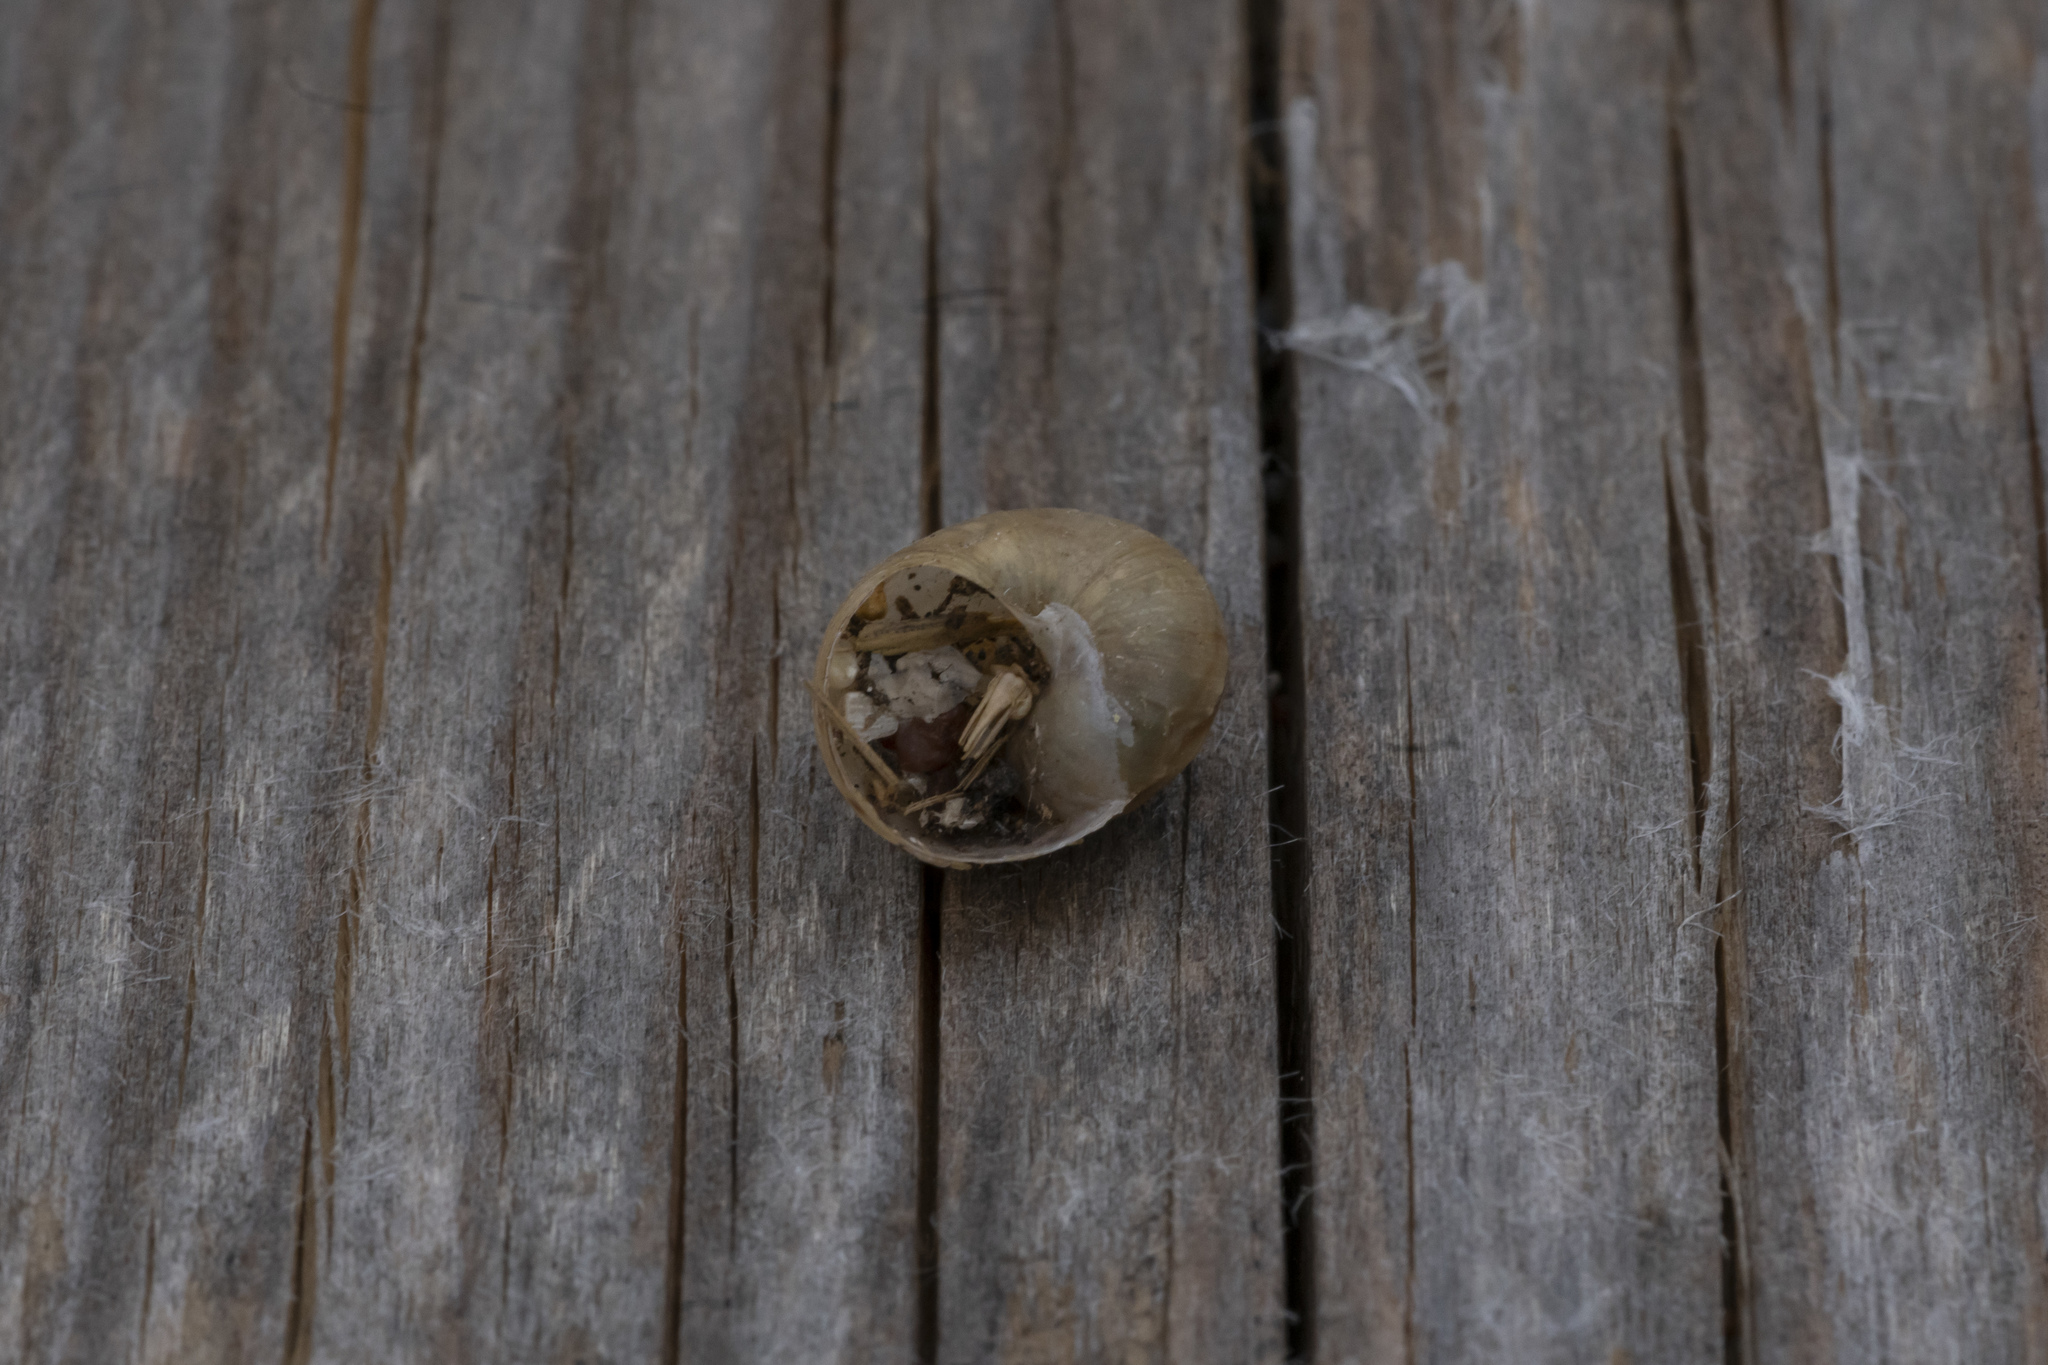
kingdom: Animalia
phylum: Mollusca
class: Gastropoda
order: Stylommatophora
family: Helicidae
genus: Cornu
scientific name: Cornu aspersum
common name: Brown garden snail
